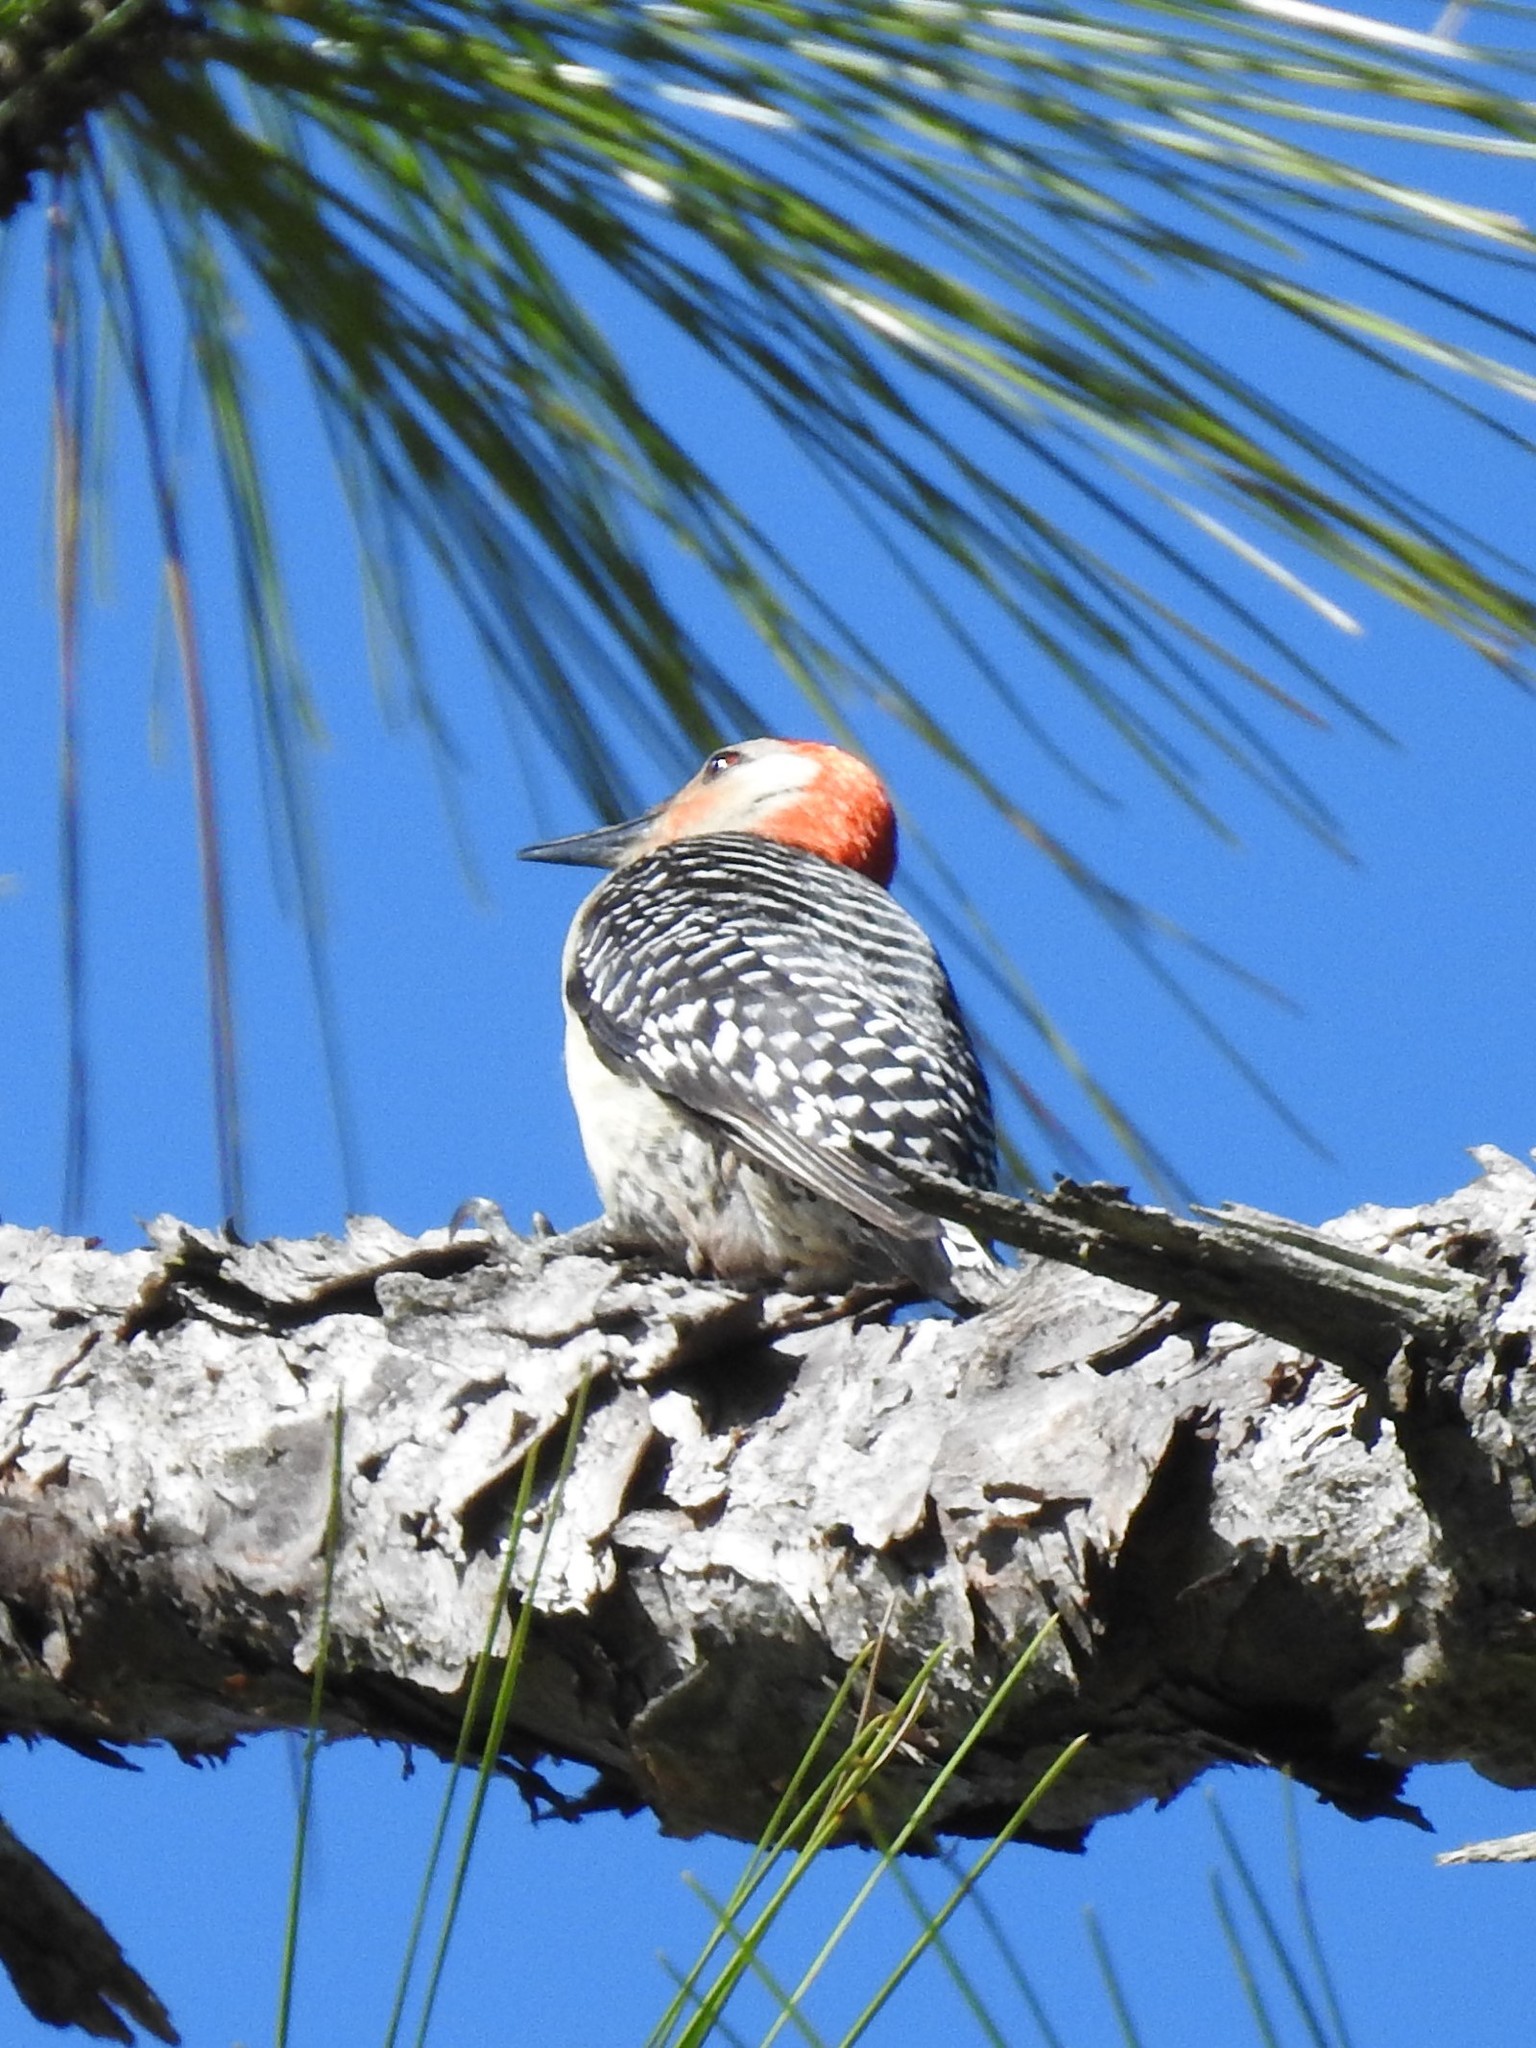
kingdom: Animalia
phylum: Chordata
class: Aves
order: Piciformes
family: Picidae
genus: Melanerpes
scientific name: Melanerpes carolinus
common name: Red-bellied woodpecker
